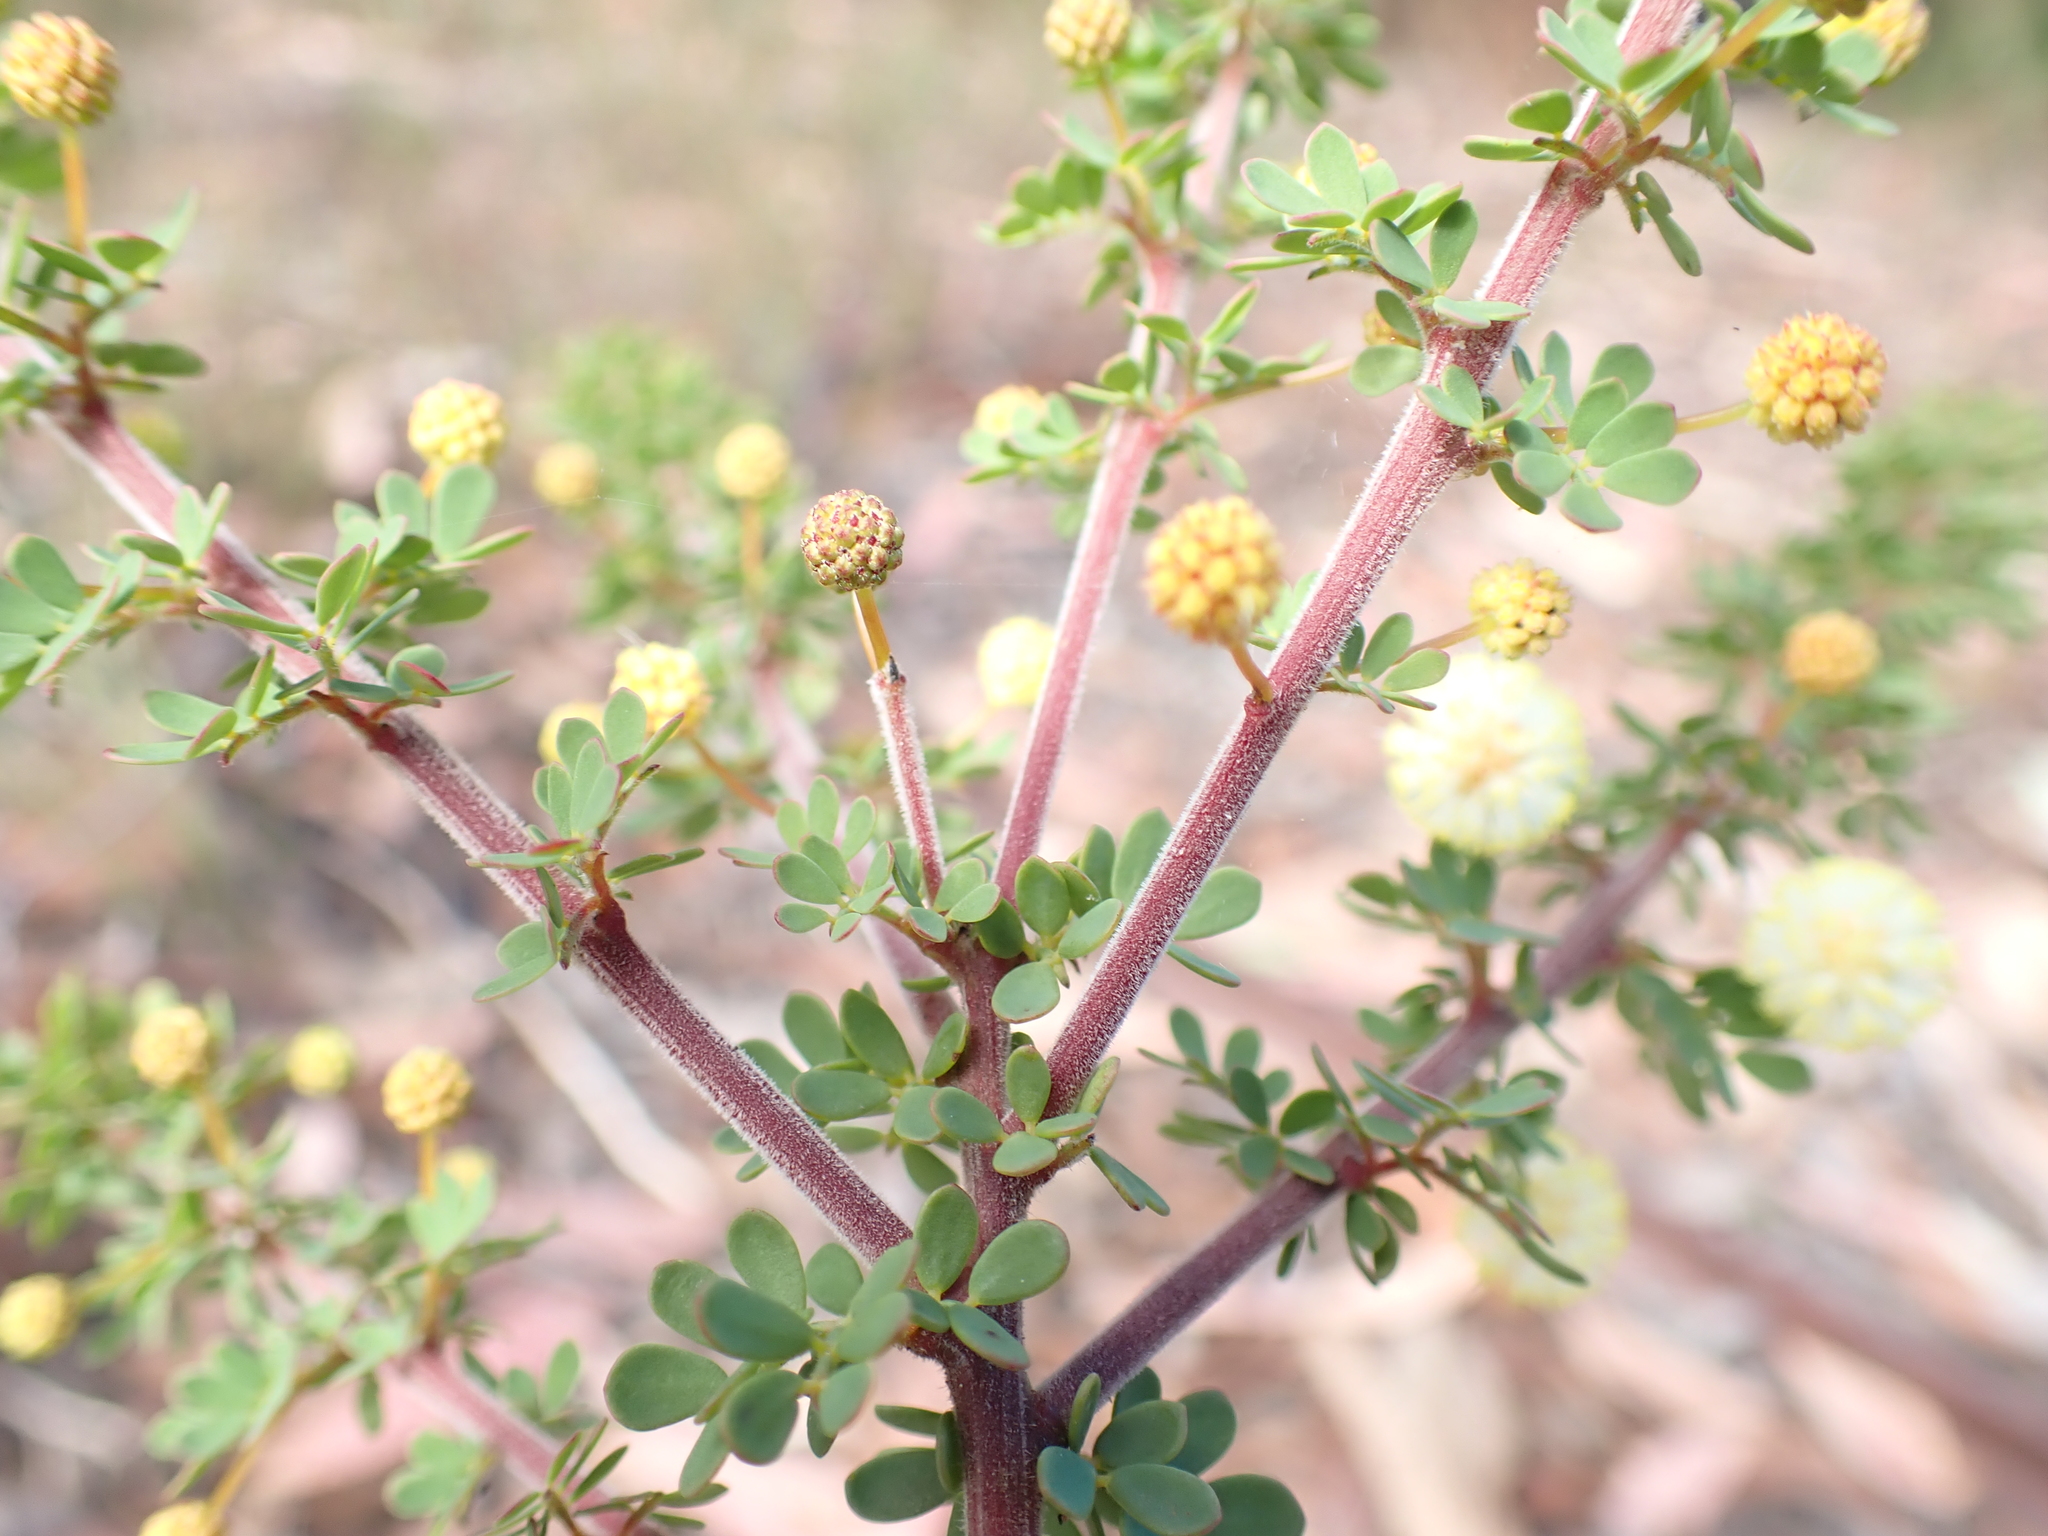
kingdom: Plantae
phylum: Tracheophyta
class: Magnoliopsida
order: Fabales
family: Fabaceae
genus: Acacia
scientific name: Acacia mitchellii
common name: Mitchell's wattle
